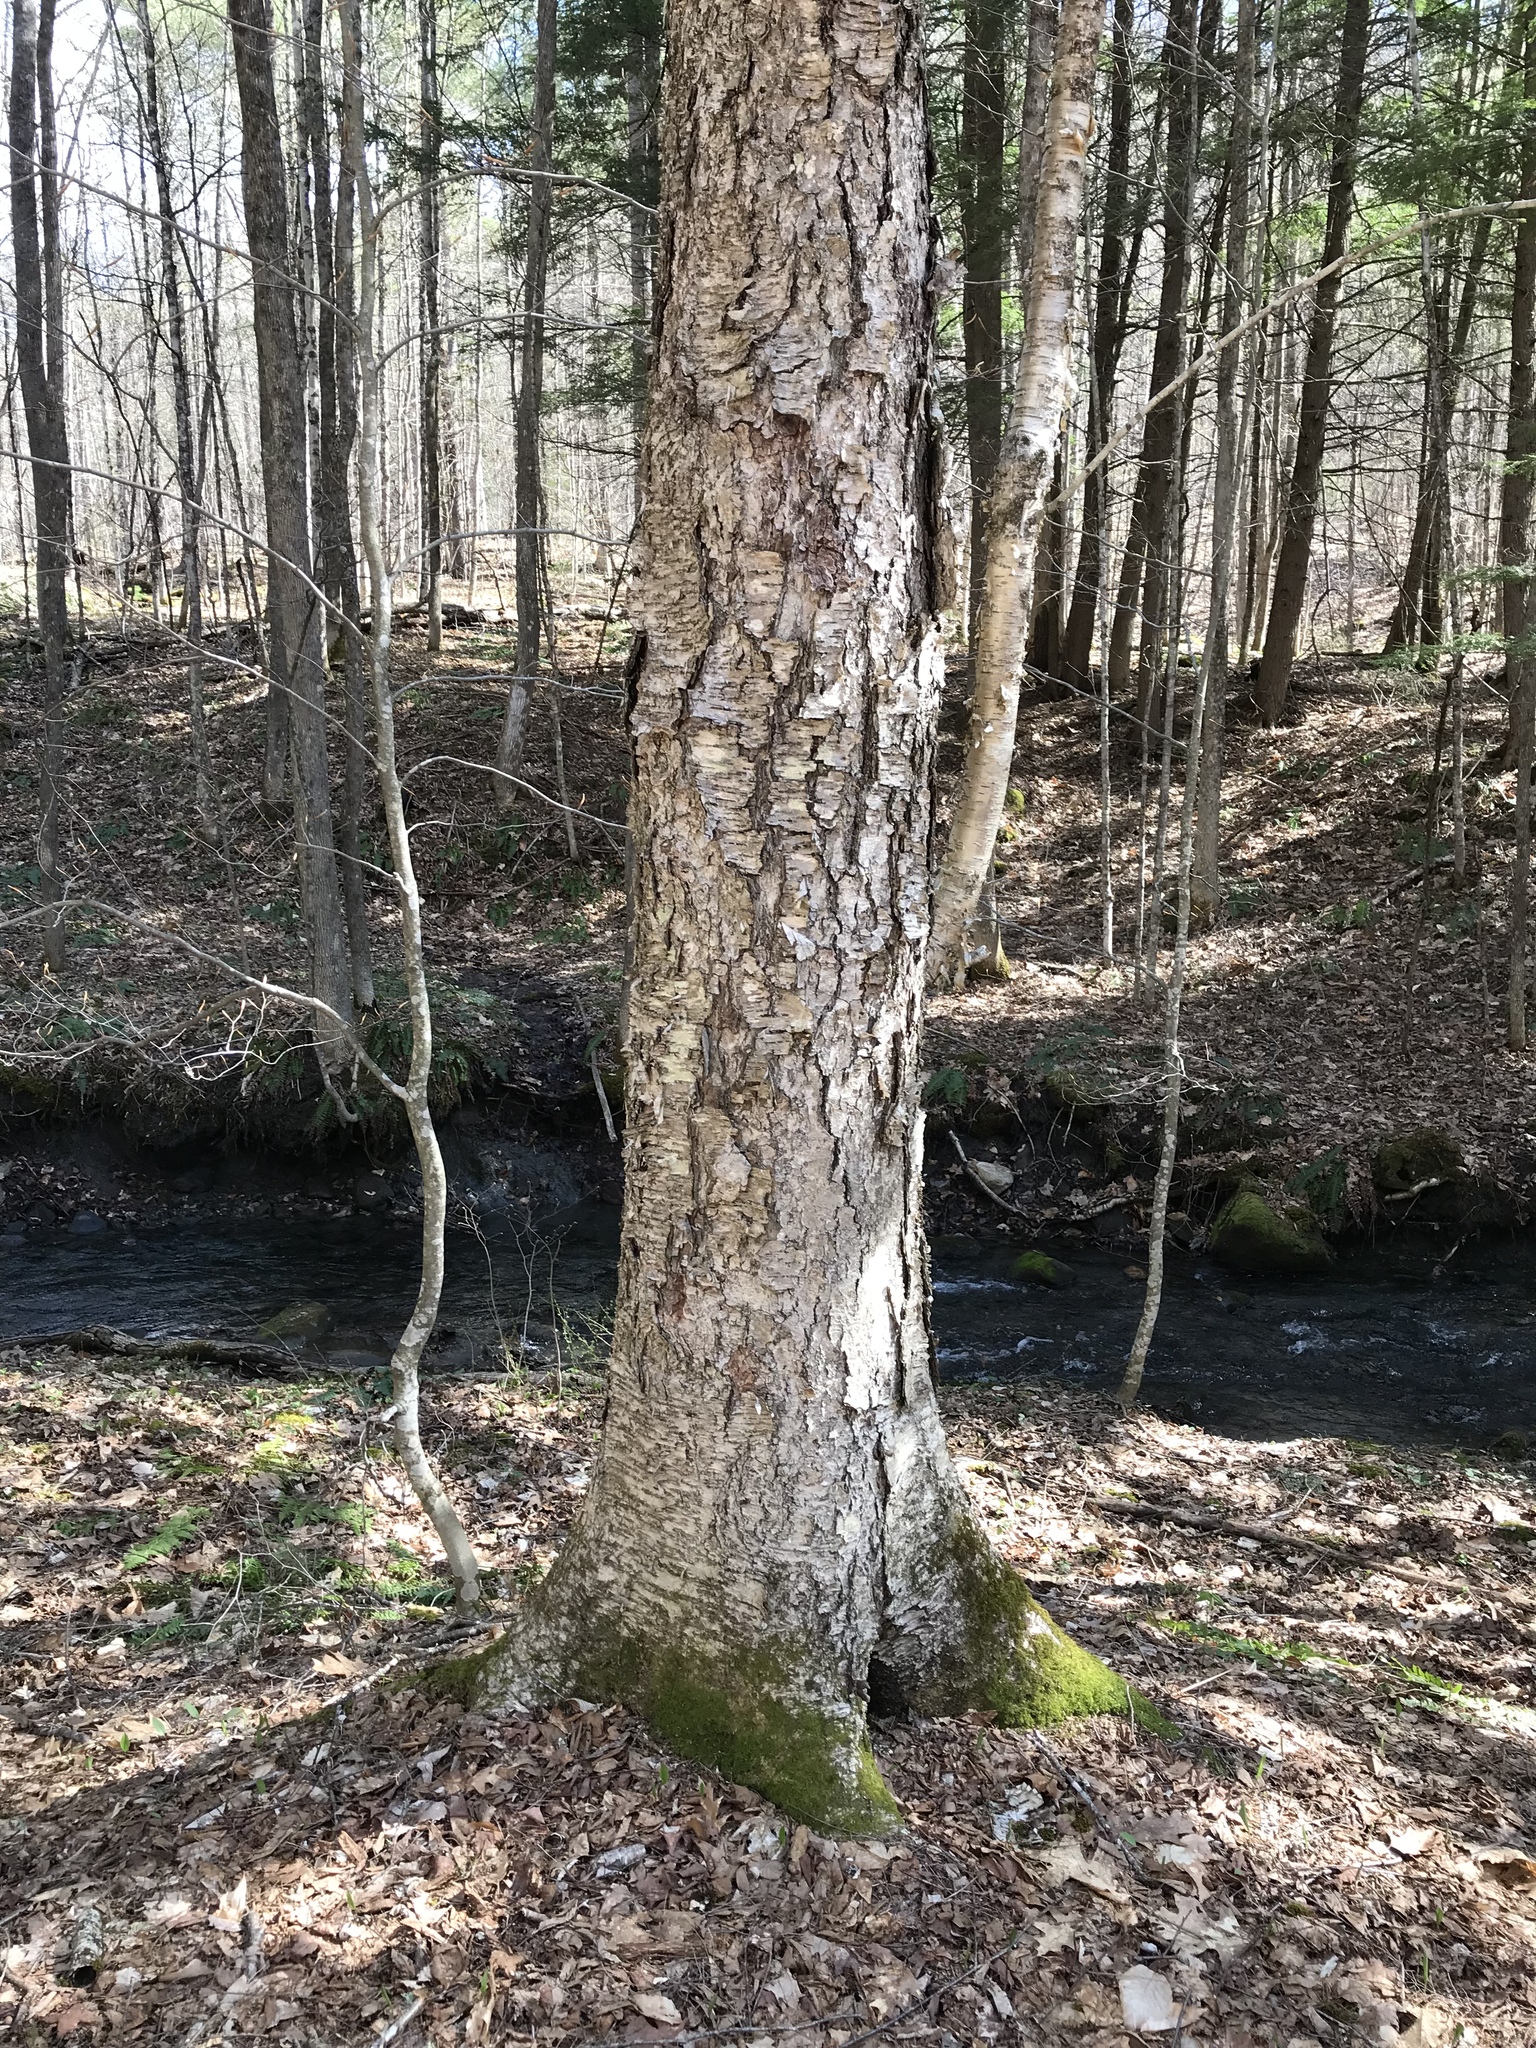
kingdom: Plantae
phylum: Tracheophyta
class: Magnoliopsida
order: Fagales
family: Betulaceae
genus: Betula
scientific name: Betula alleghaniensis
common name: Yellow birch
